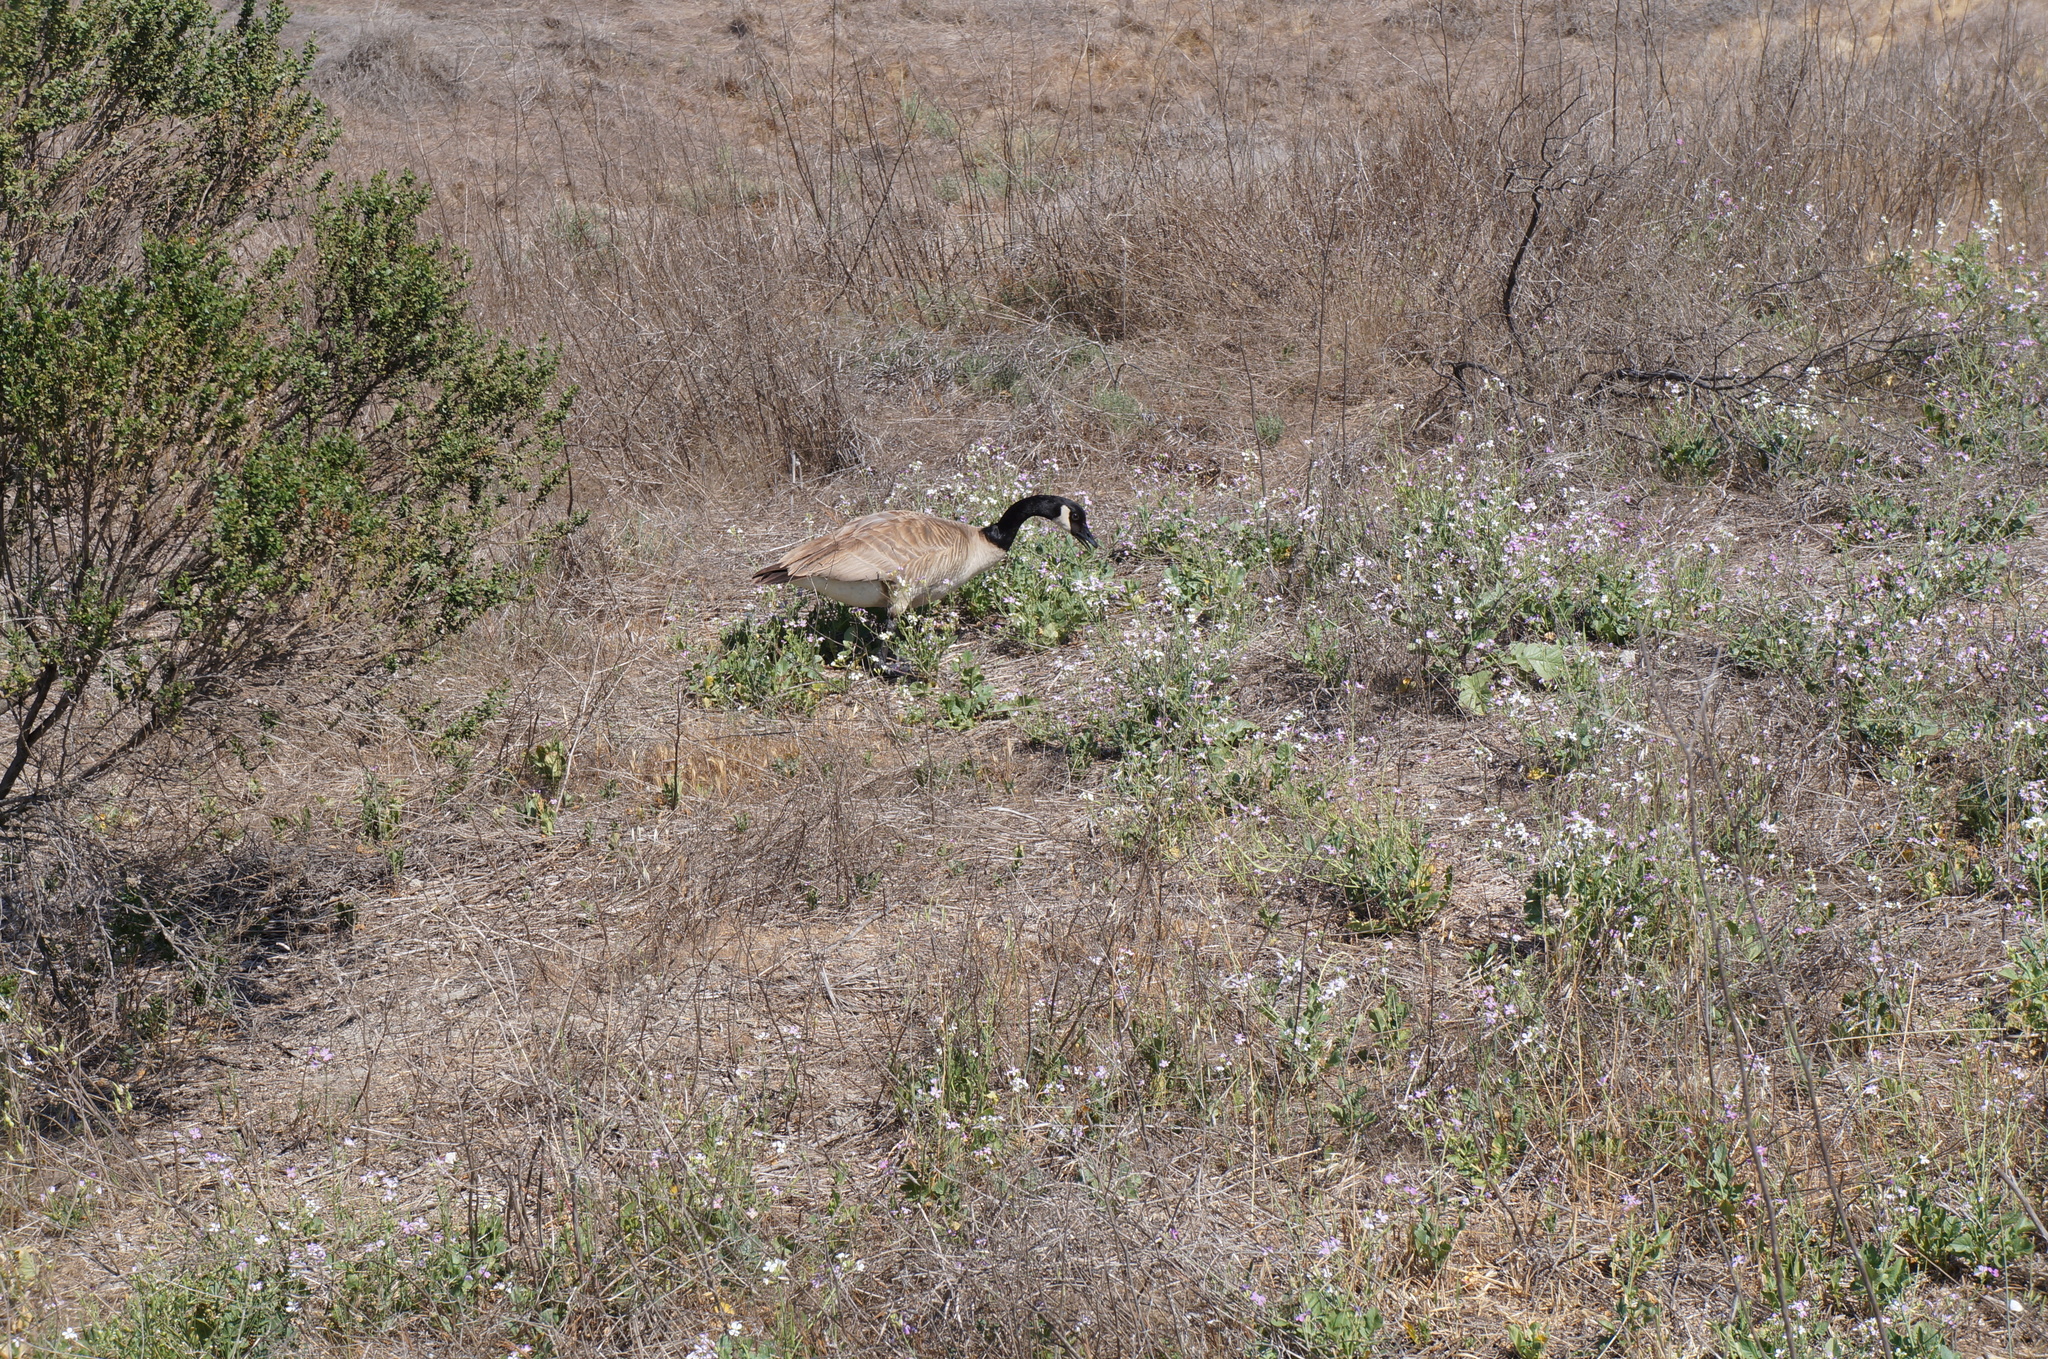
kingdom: Animalia
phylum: Chordata
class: Aves
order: Anseriformes
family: Anatidae
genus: Branta
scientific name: Branta canadensis
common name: Canada goose
